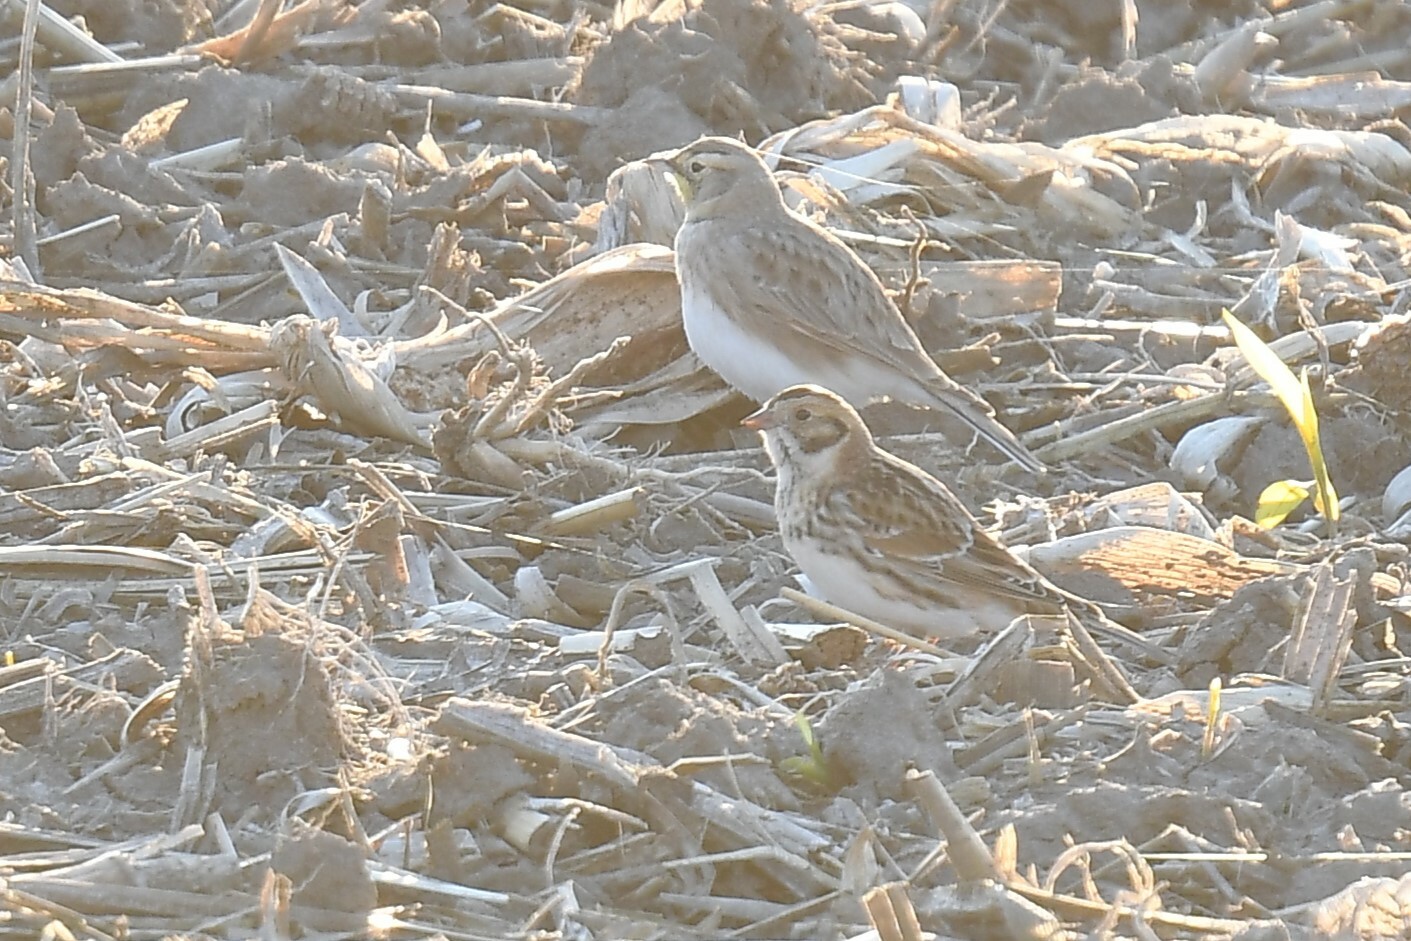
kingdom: Animalia
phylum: Chordata
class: Aves
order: Passeriformes
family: Calcariidae
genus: Calcarius
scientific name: Calcarius lapponicus
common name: Lapland longspur
